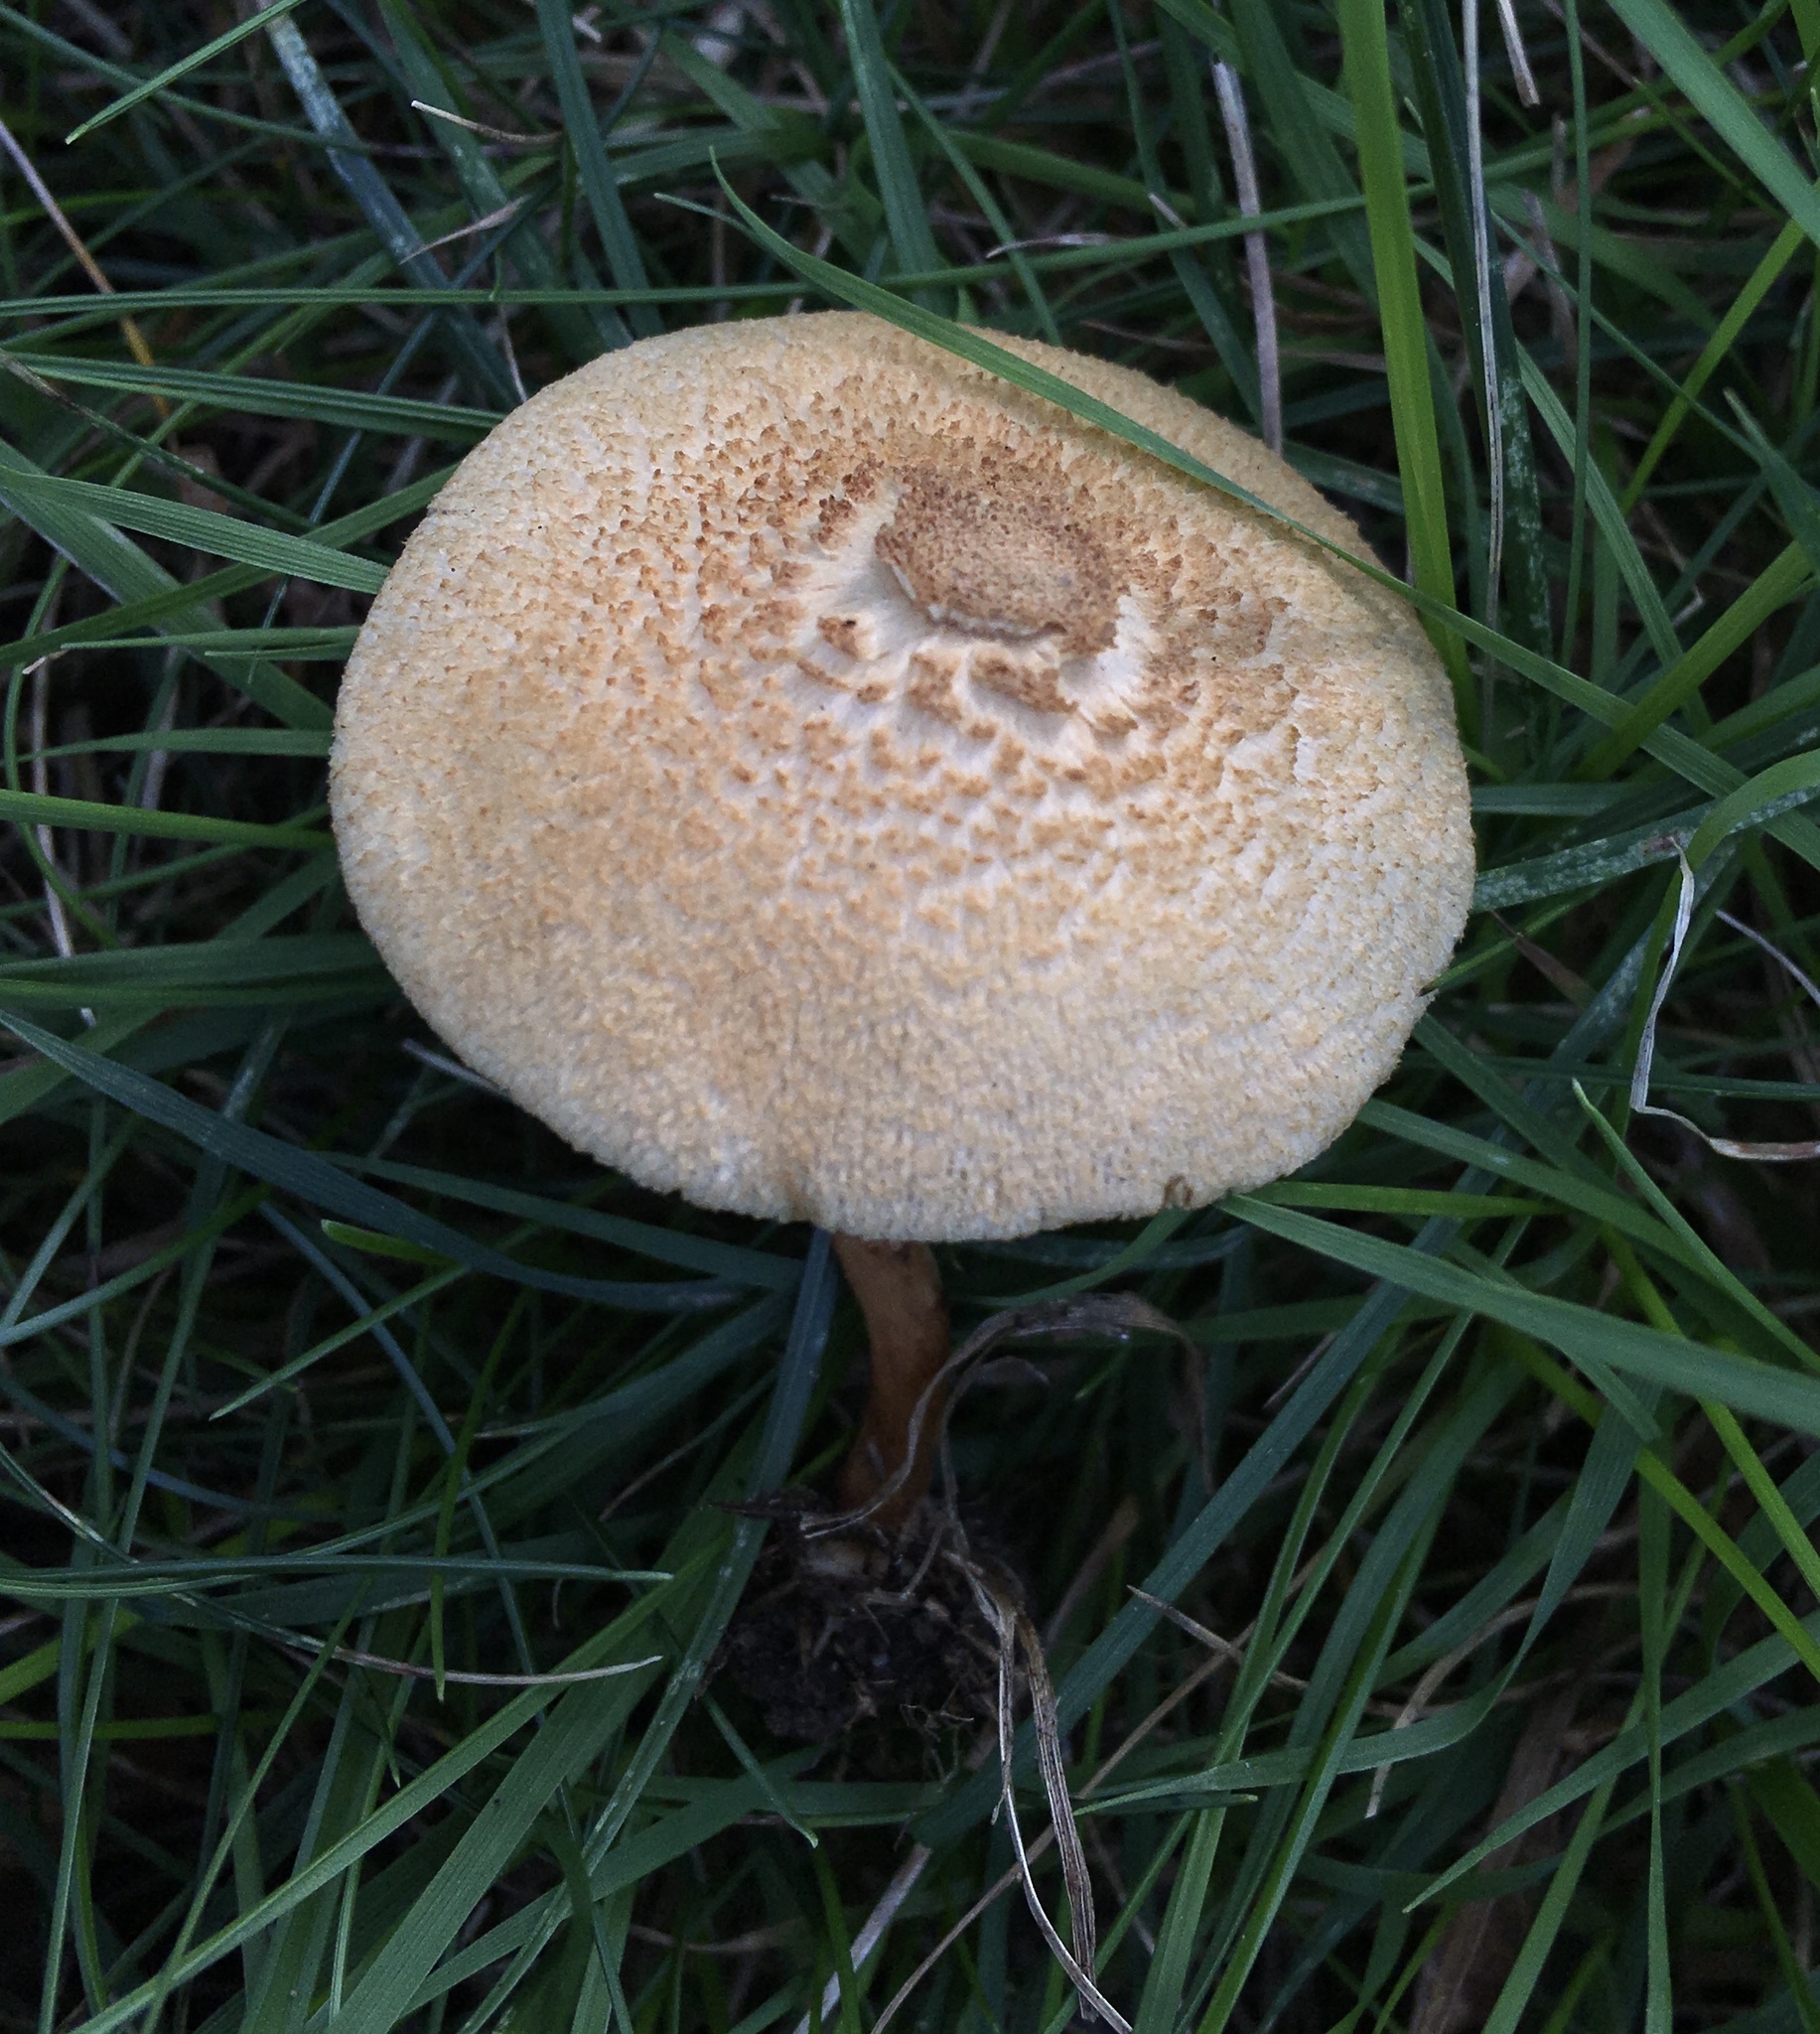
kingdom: Fungi
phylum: Basidiomycota
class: Agaricomycetes
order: Agaricales
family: Inocybaceae
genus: Mallocybe
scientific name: Mallocybe unicolor
